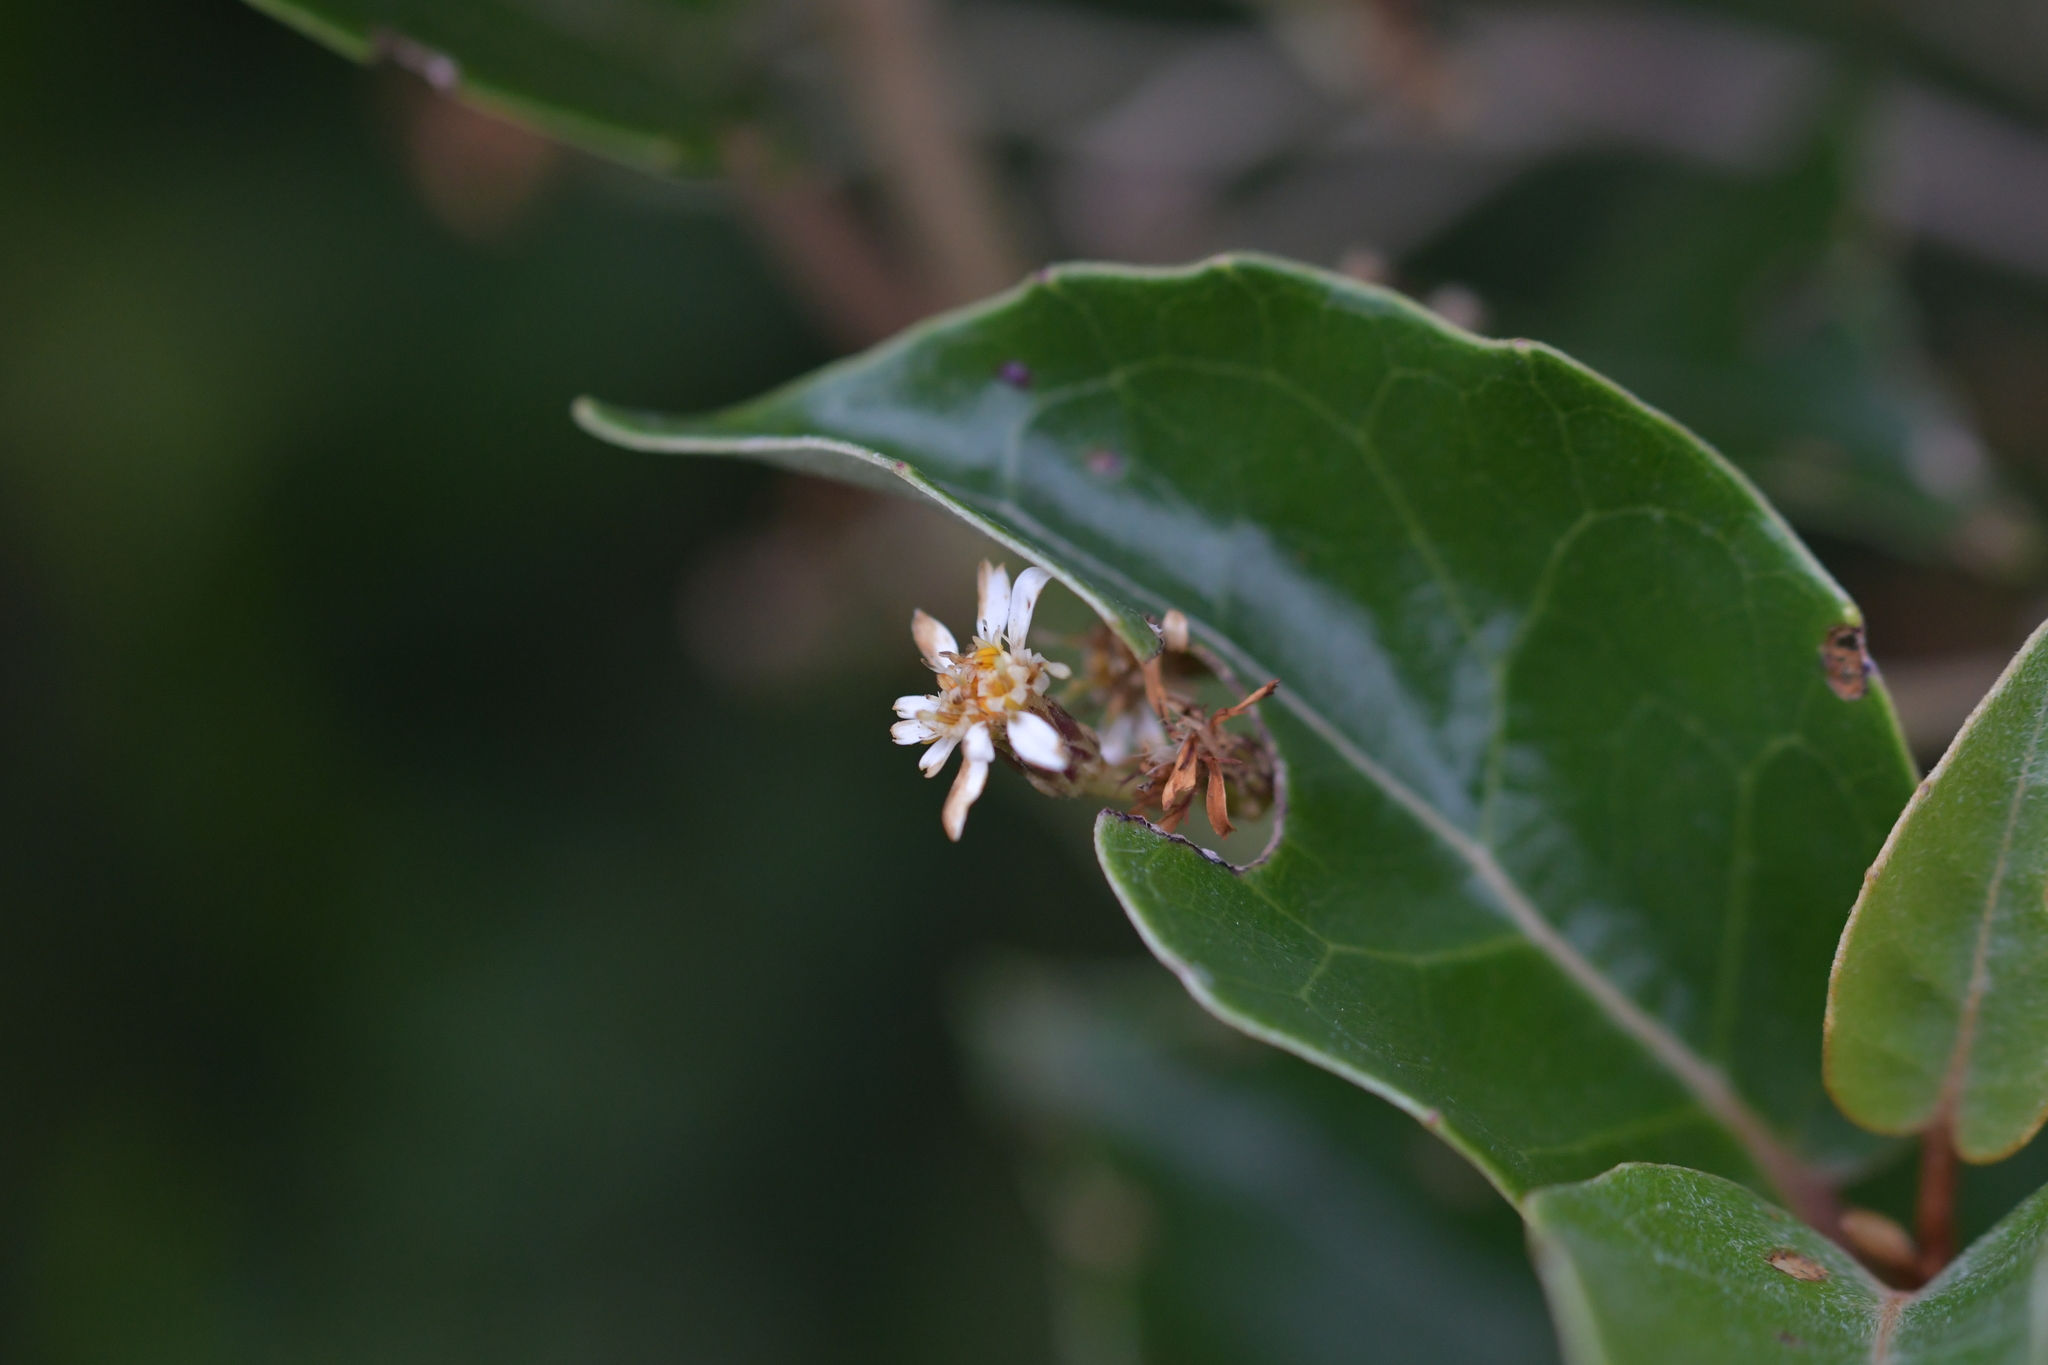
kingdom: Plantae
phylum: Tracheophyta
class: Magnoliopsida
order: Asterales
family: Asteraceae
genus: Olearia
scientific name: Olearia arborescens
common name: Glossy tree daisy
